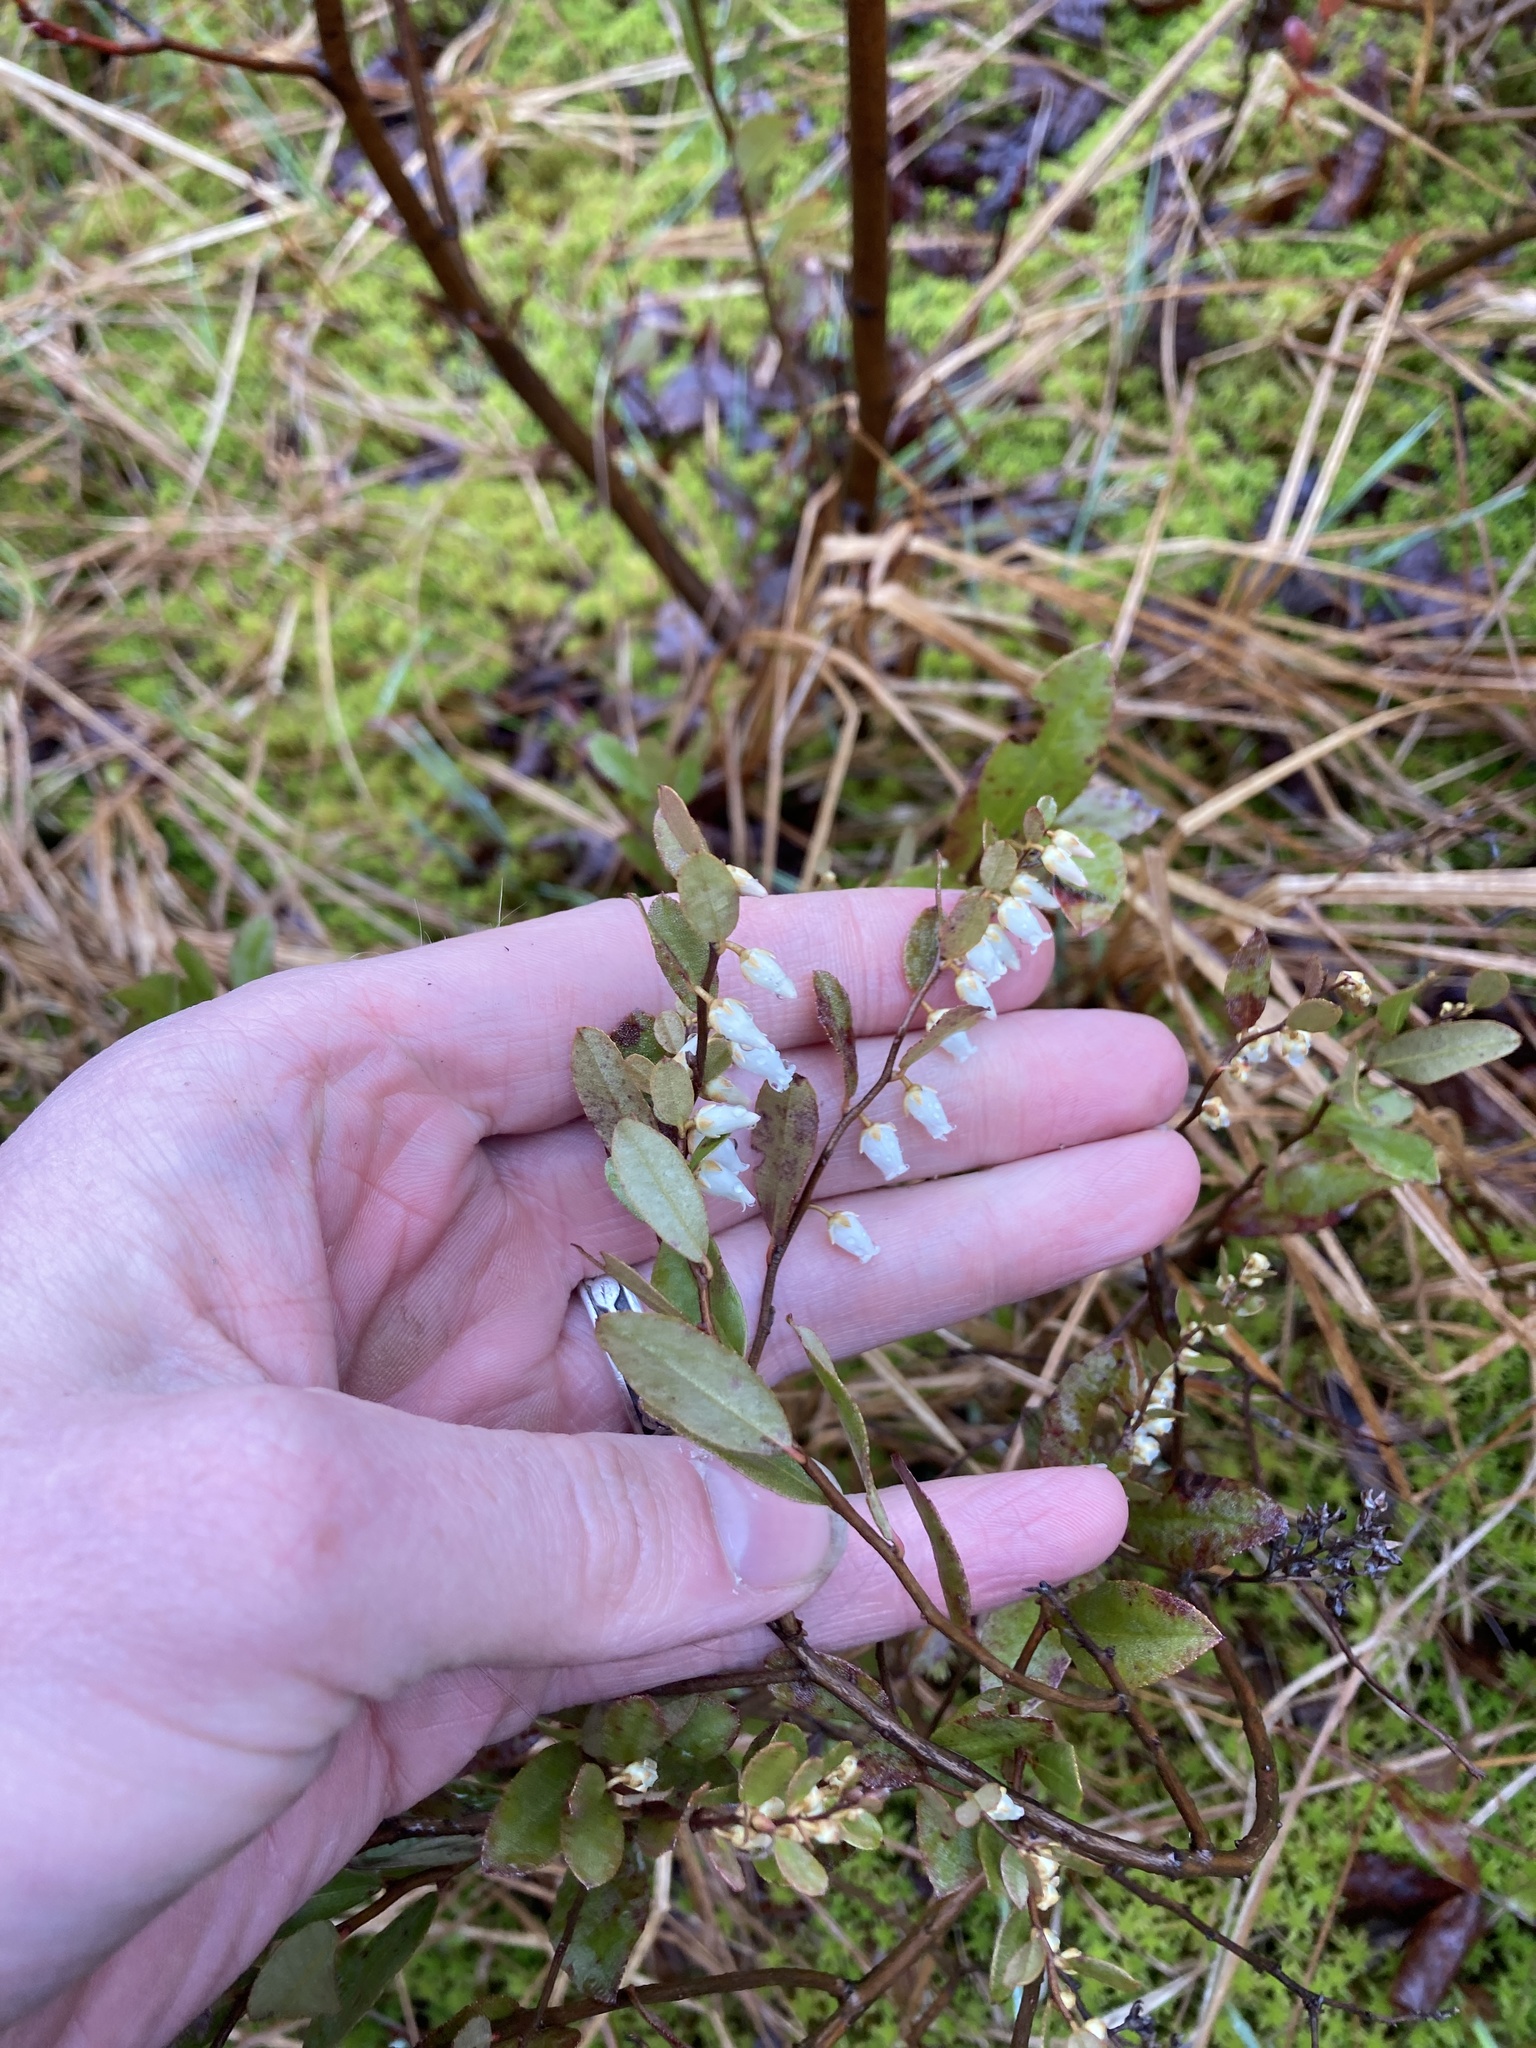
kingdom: Plantae
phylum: Tracheophyta
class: Magnoliopsida
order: Ericales
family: Ericaceae
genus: Chamaedaphne
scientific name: Chamaedaphne calyculata
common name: Leatherleaf
